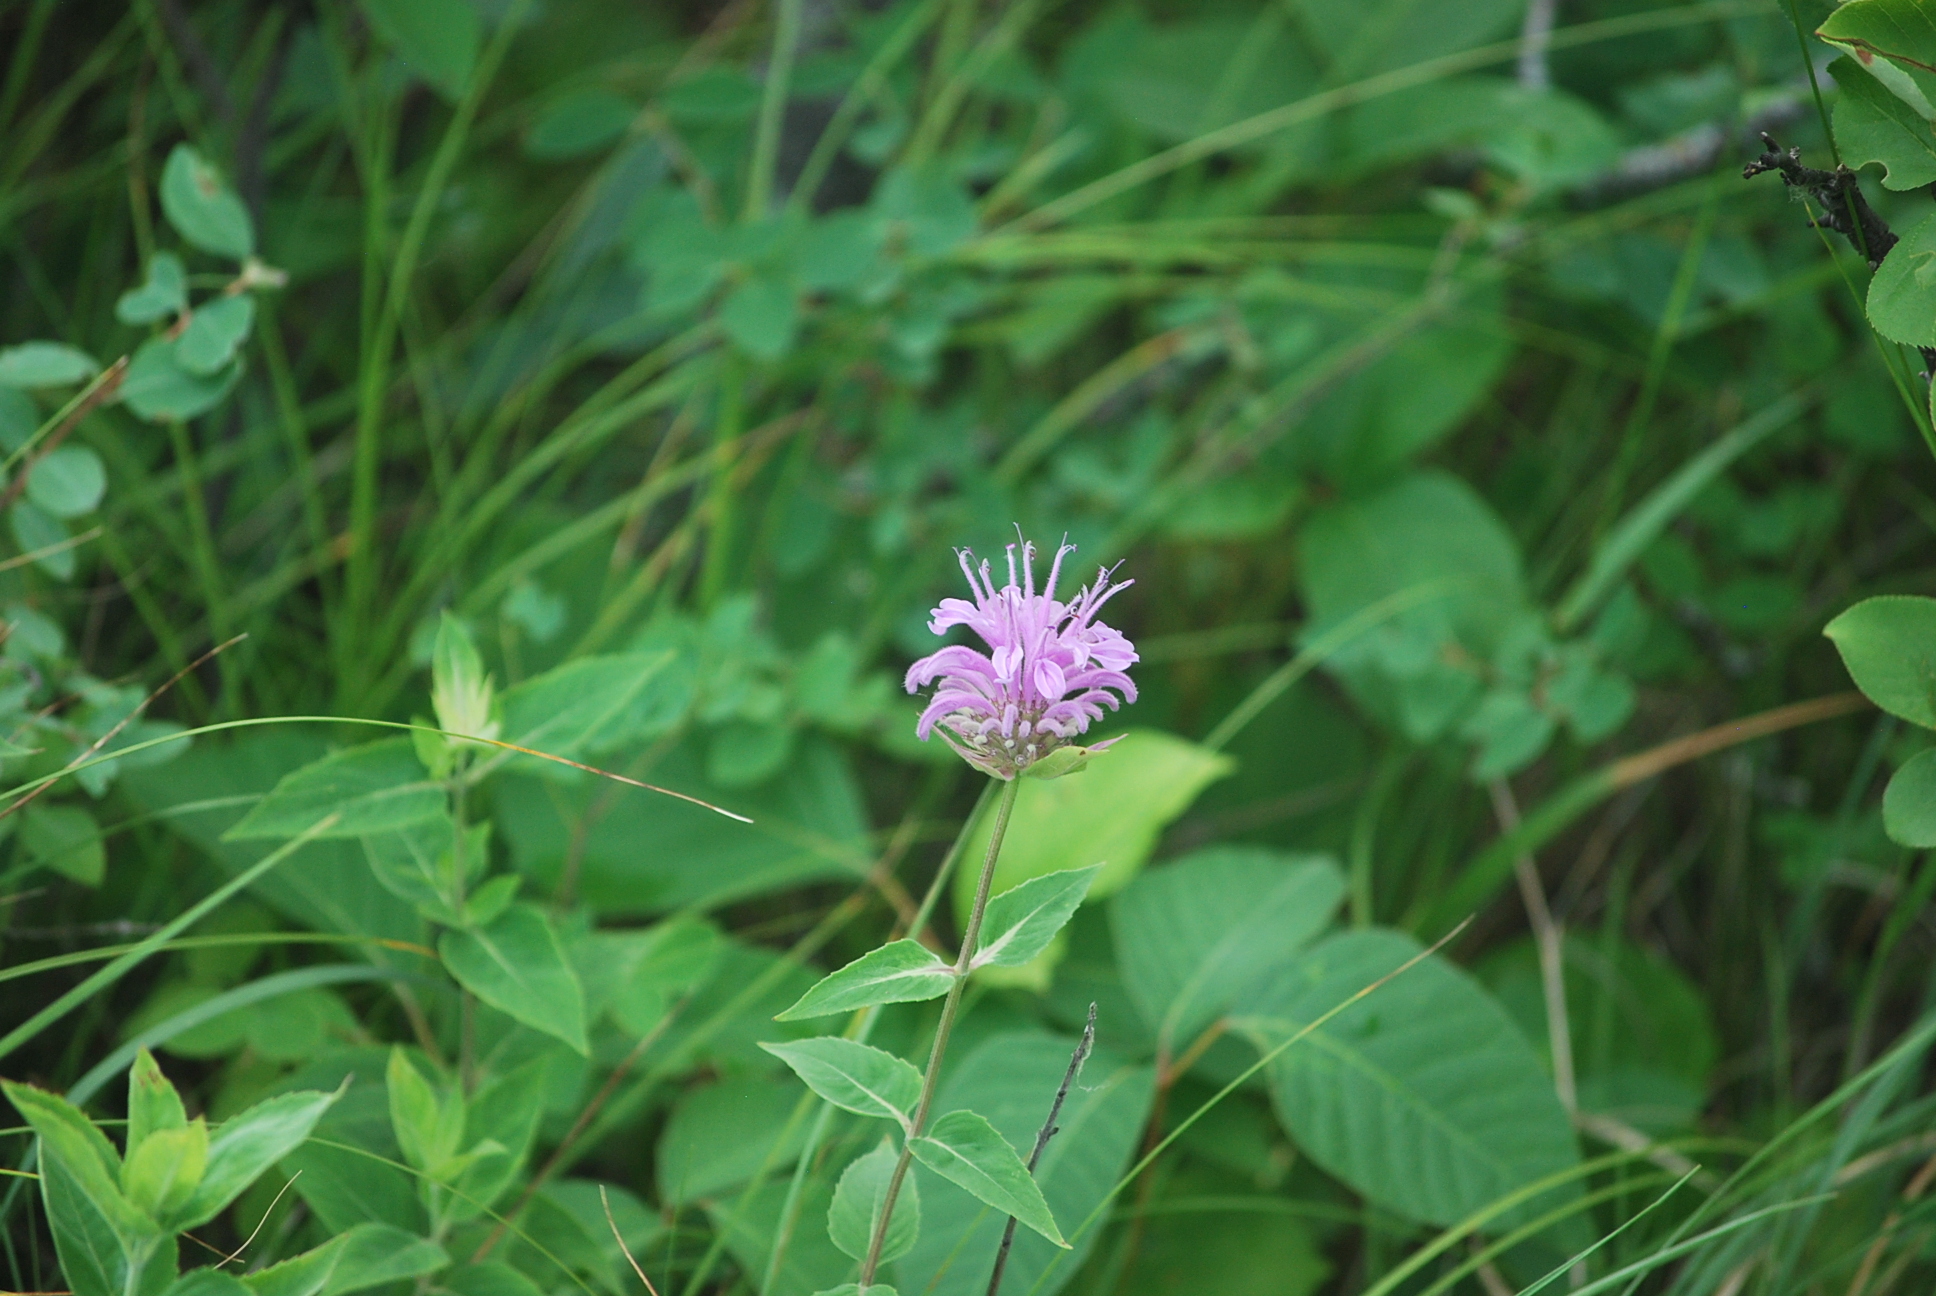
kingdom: Plantae
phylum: Tracheophyta
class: Magnoliopsida
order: Lamiales
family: Lamiaceae
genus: Monarda
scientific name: Monarda fistulosa
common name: Purple beebalm
